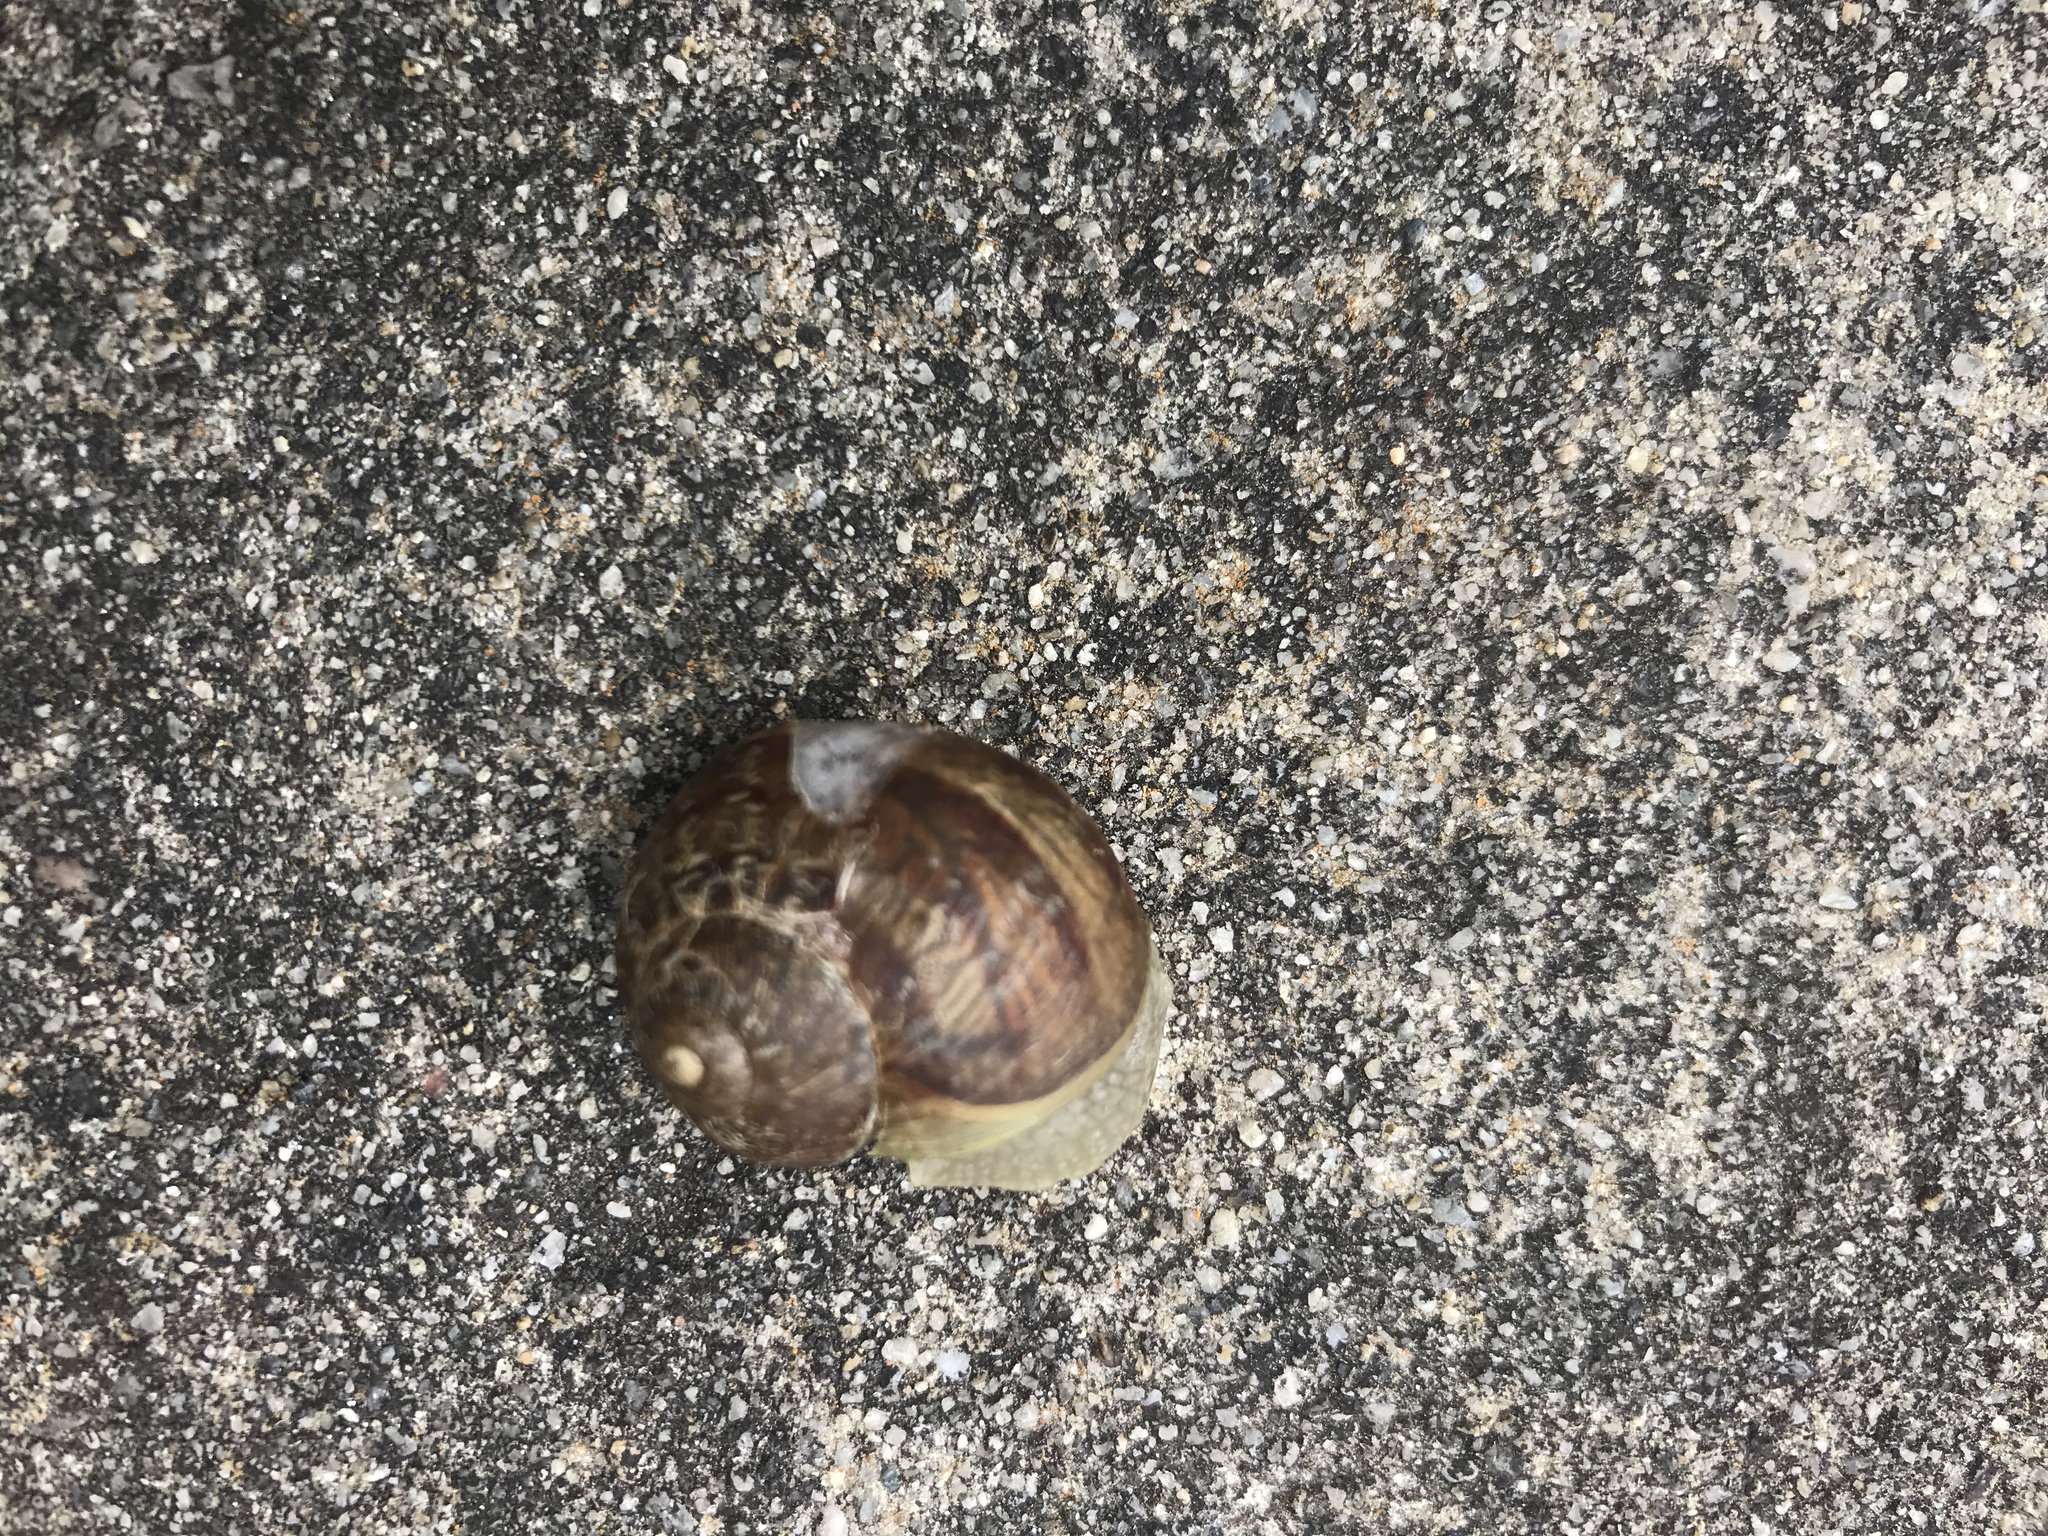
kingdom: Animalia
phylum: Mollusca
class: Gastropoda
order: Stylommatophora
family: Helicidae
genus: Cornu
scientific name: Cornu aspersum
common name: Brown garden snail
